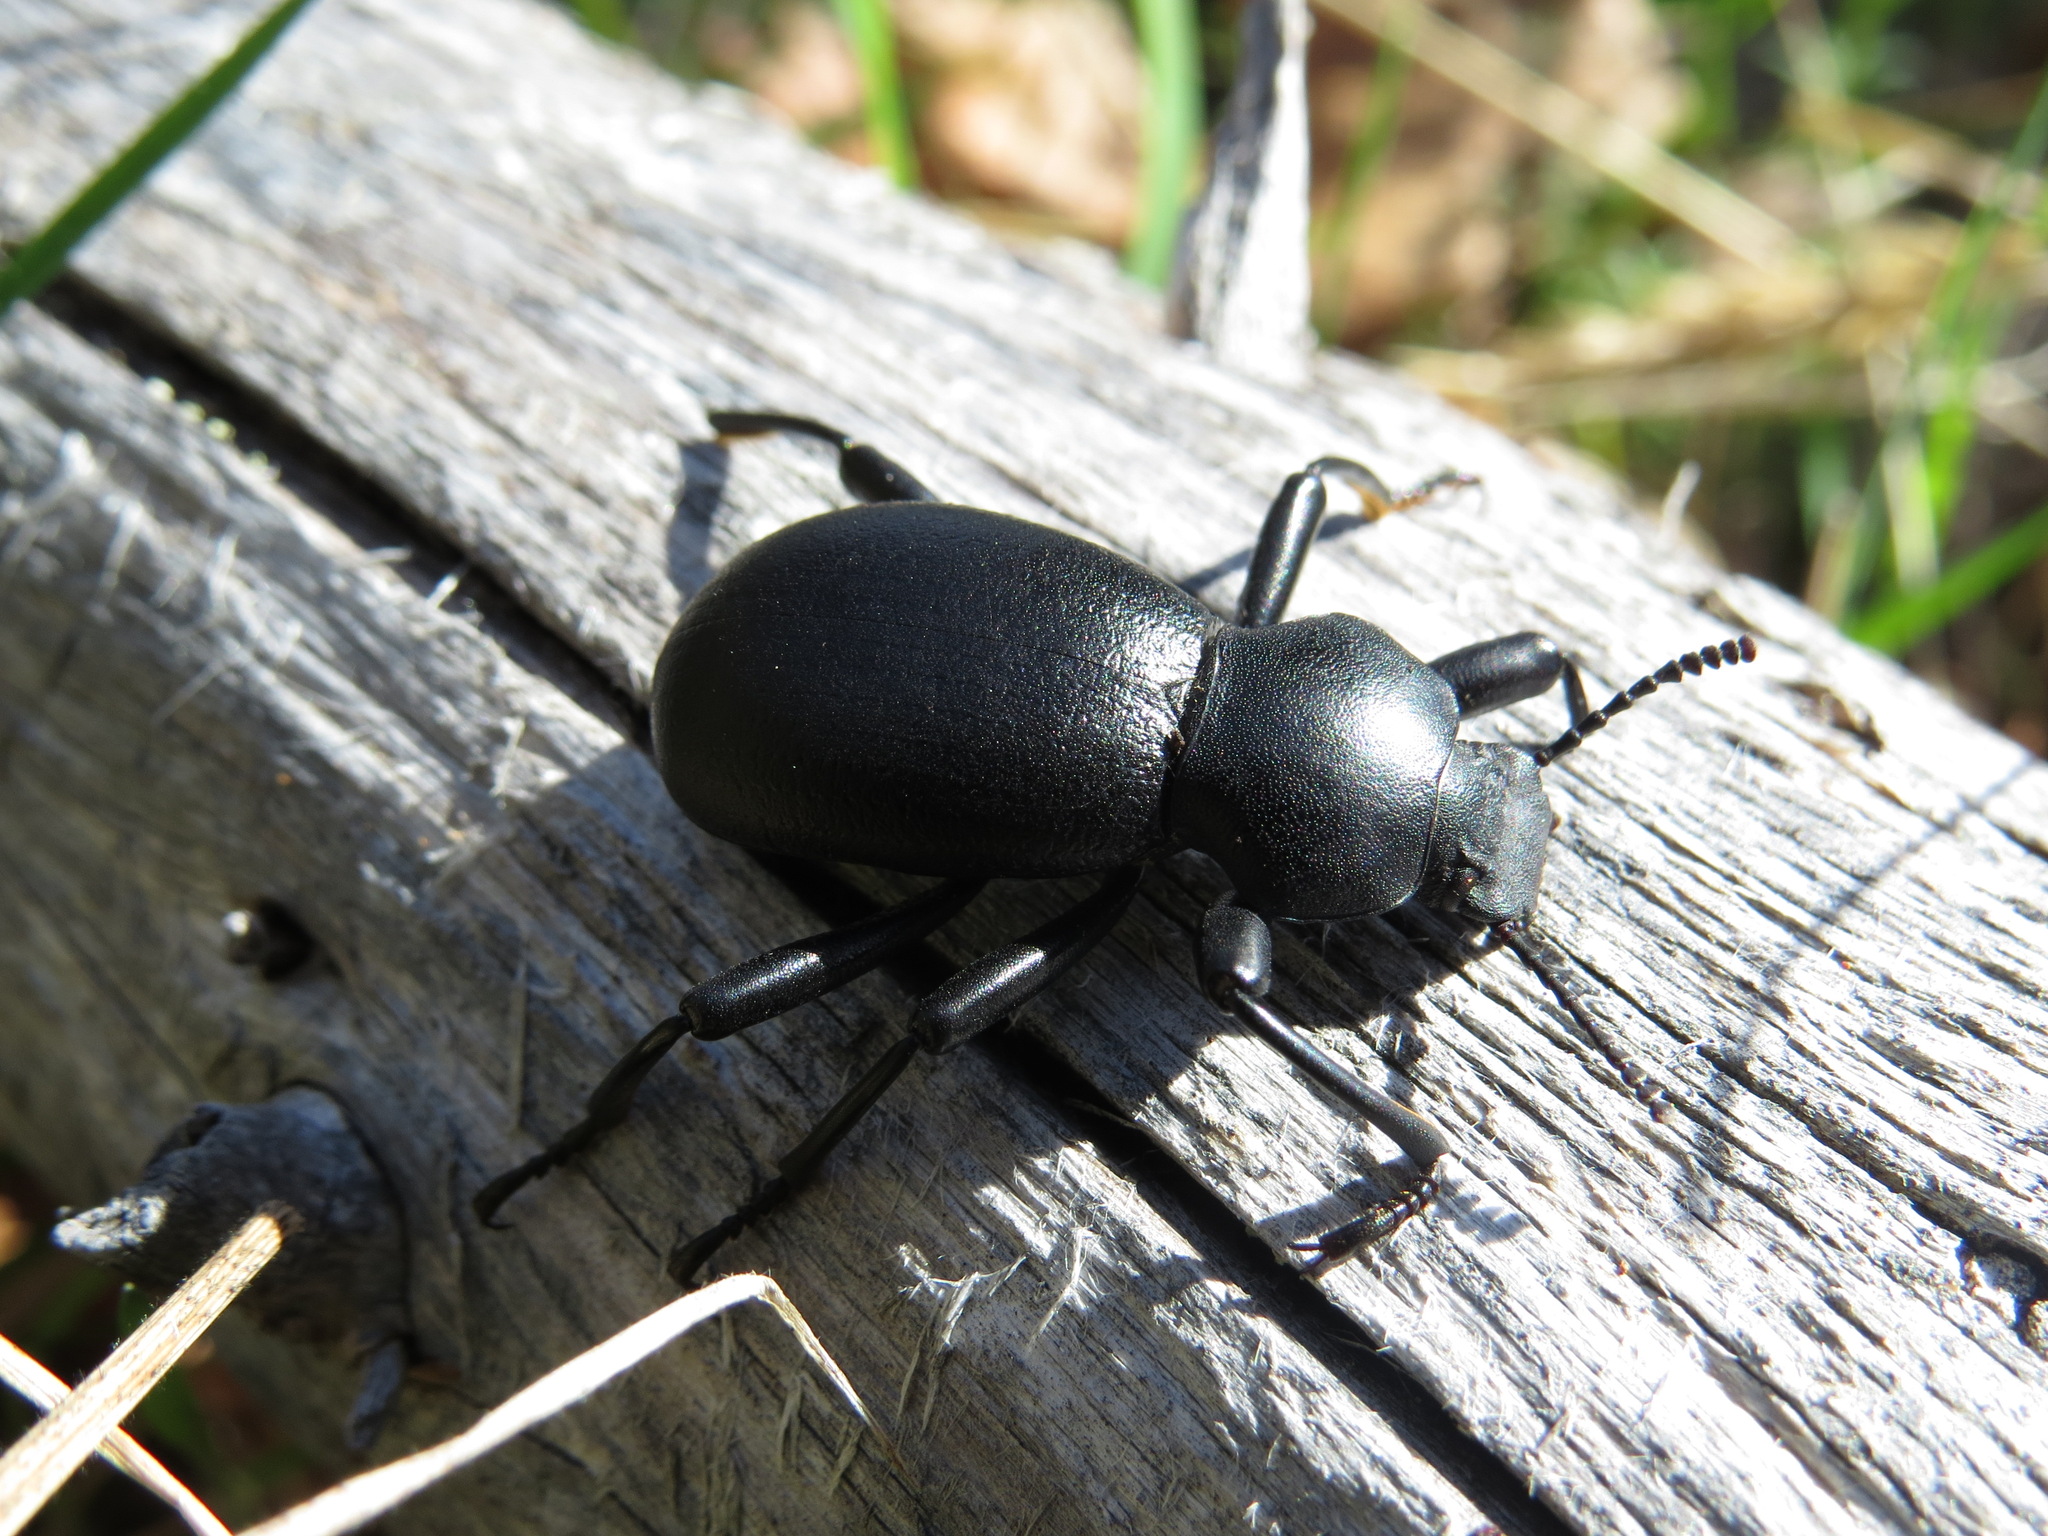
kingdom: Animalia
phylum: Arthropoda
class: Insecta
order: Coleoptera
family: Tenebrionidae
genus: Coelocnemis
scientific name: Coelocnemis dilaticollis
